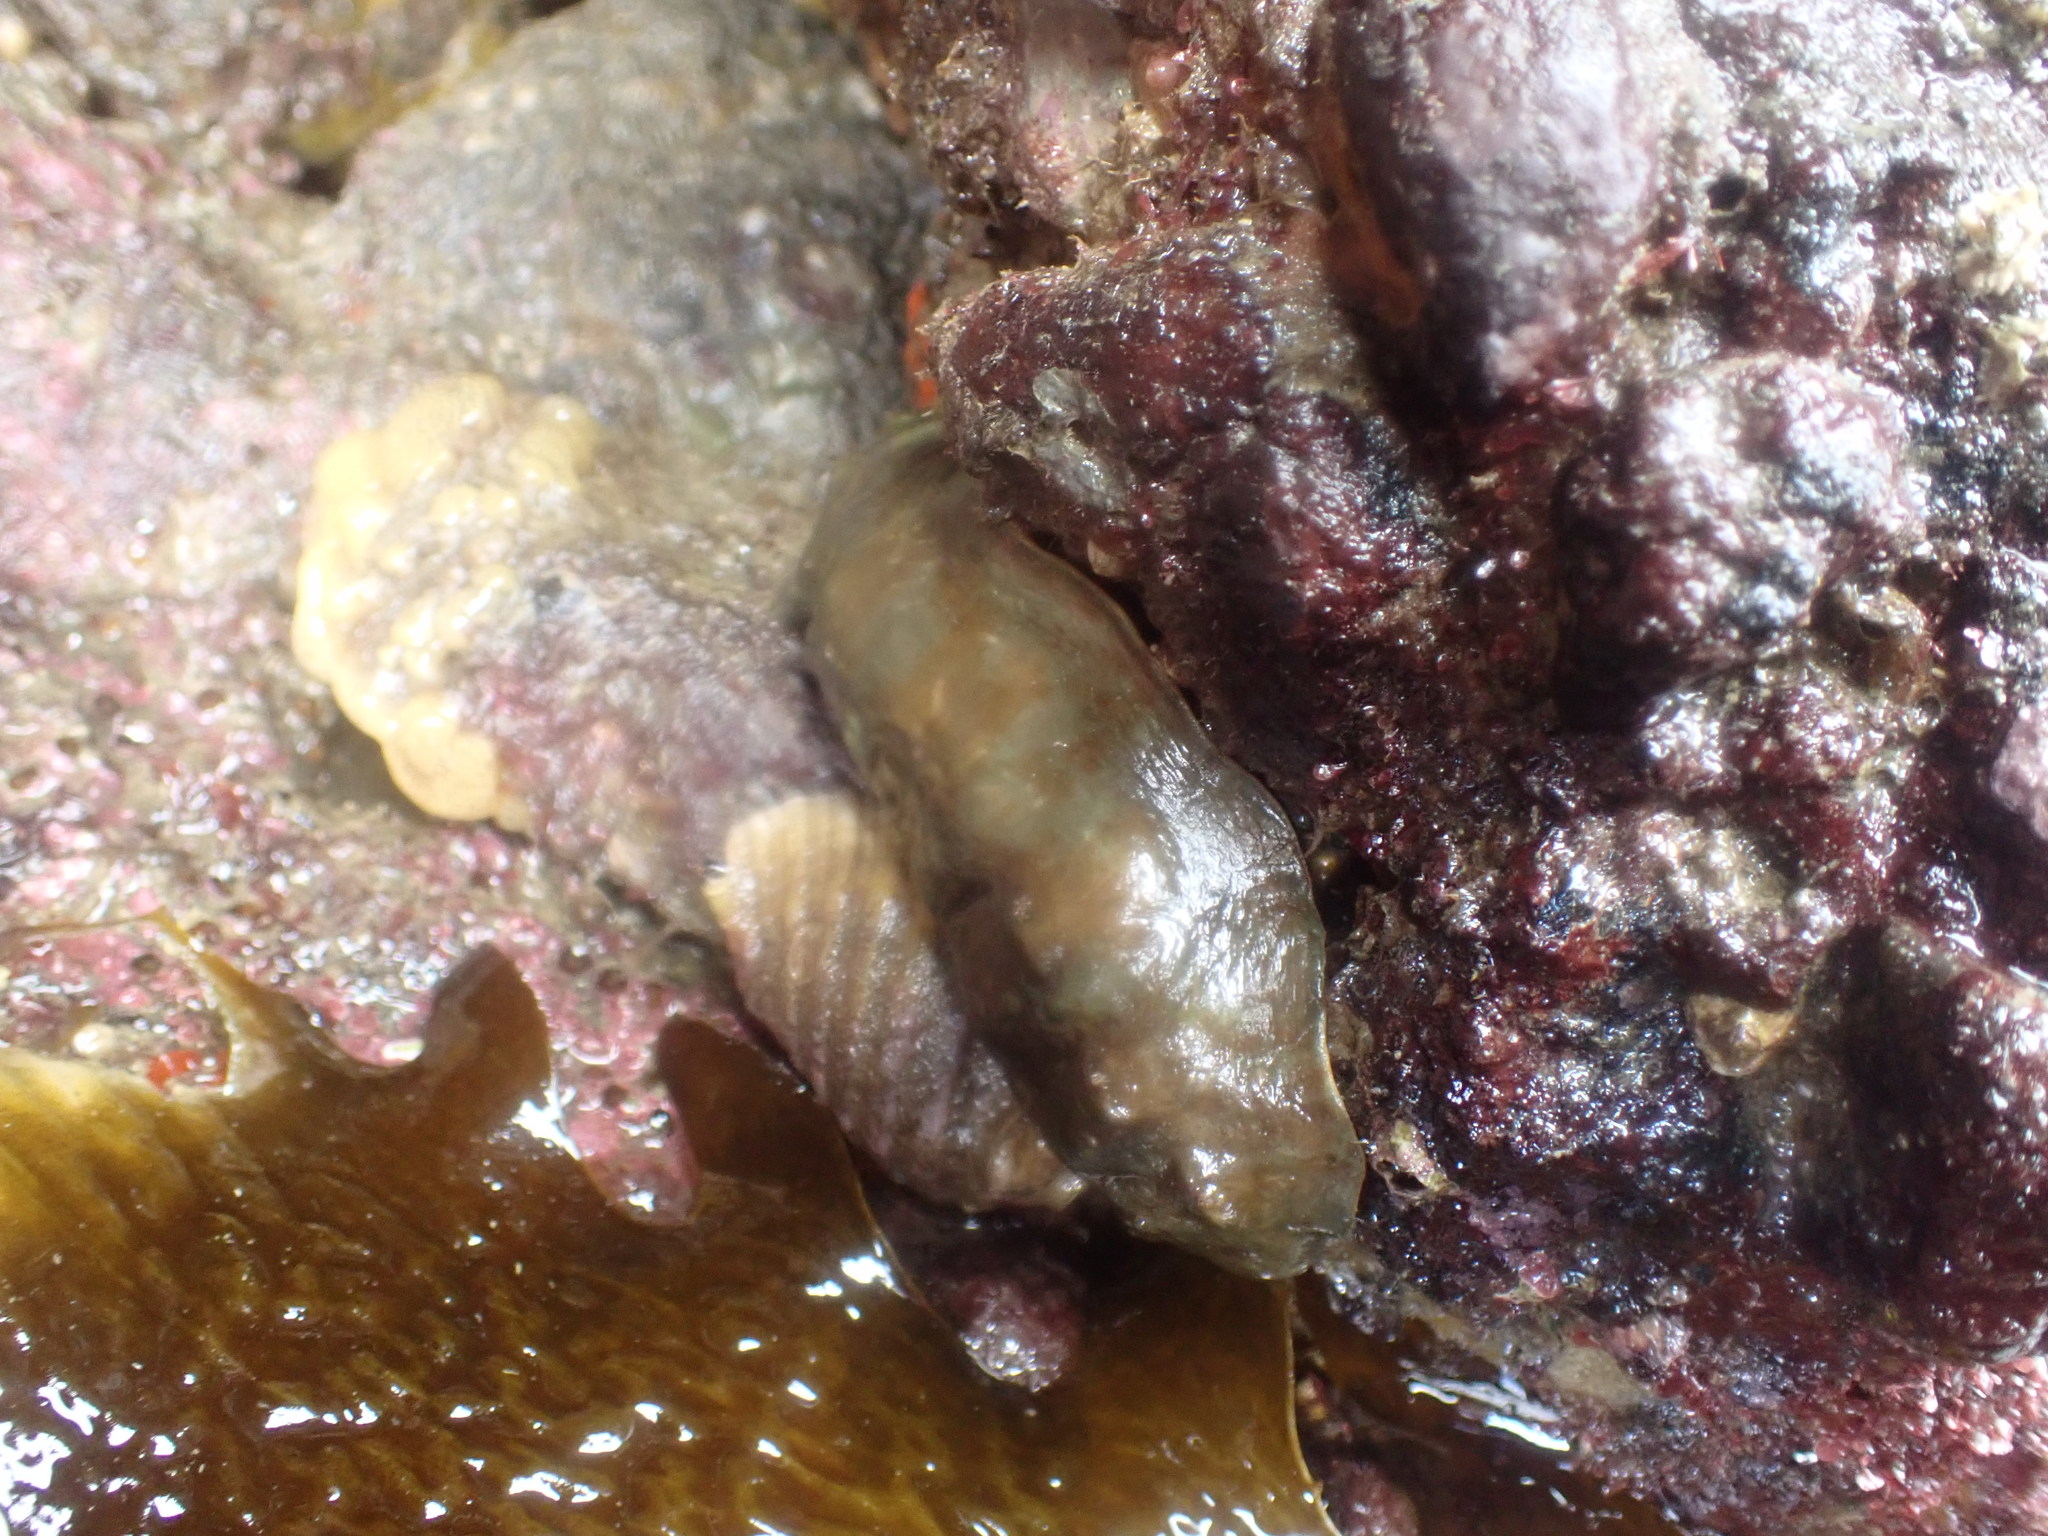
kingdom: Animalia
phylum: Mollusca
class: Polyplacophora
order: Chitonida
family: Acanthochitonidae
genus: Cryptoconchus
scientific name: Cryptoconchus porosus
